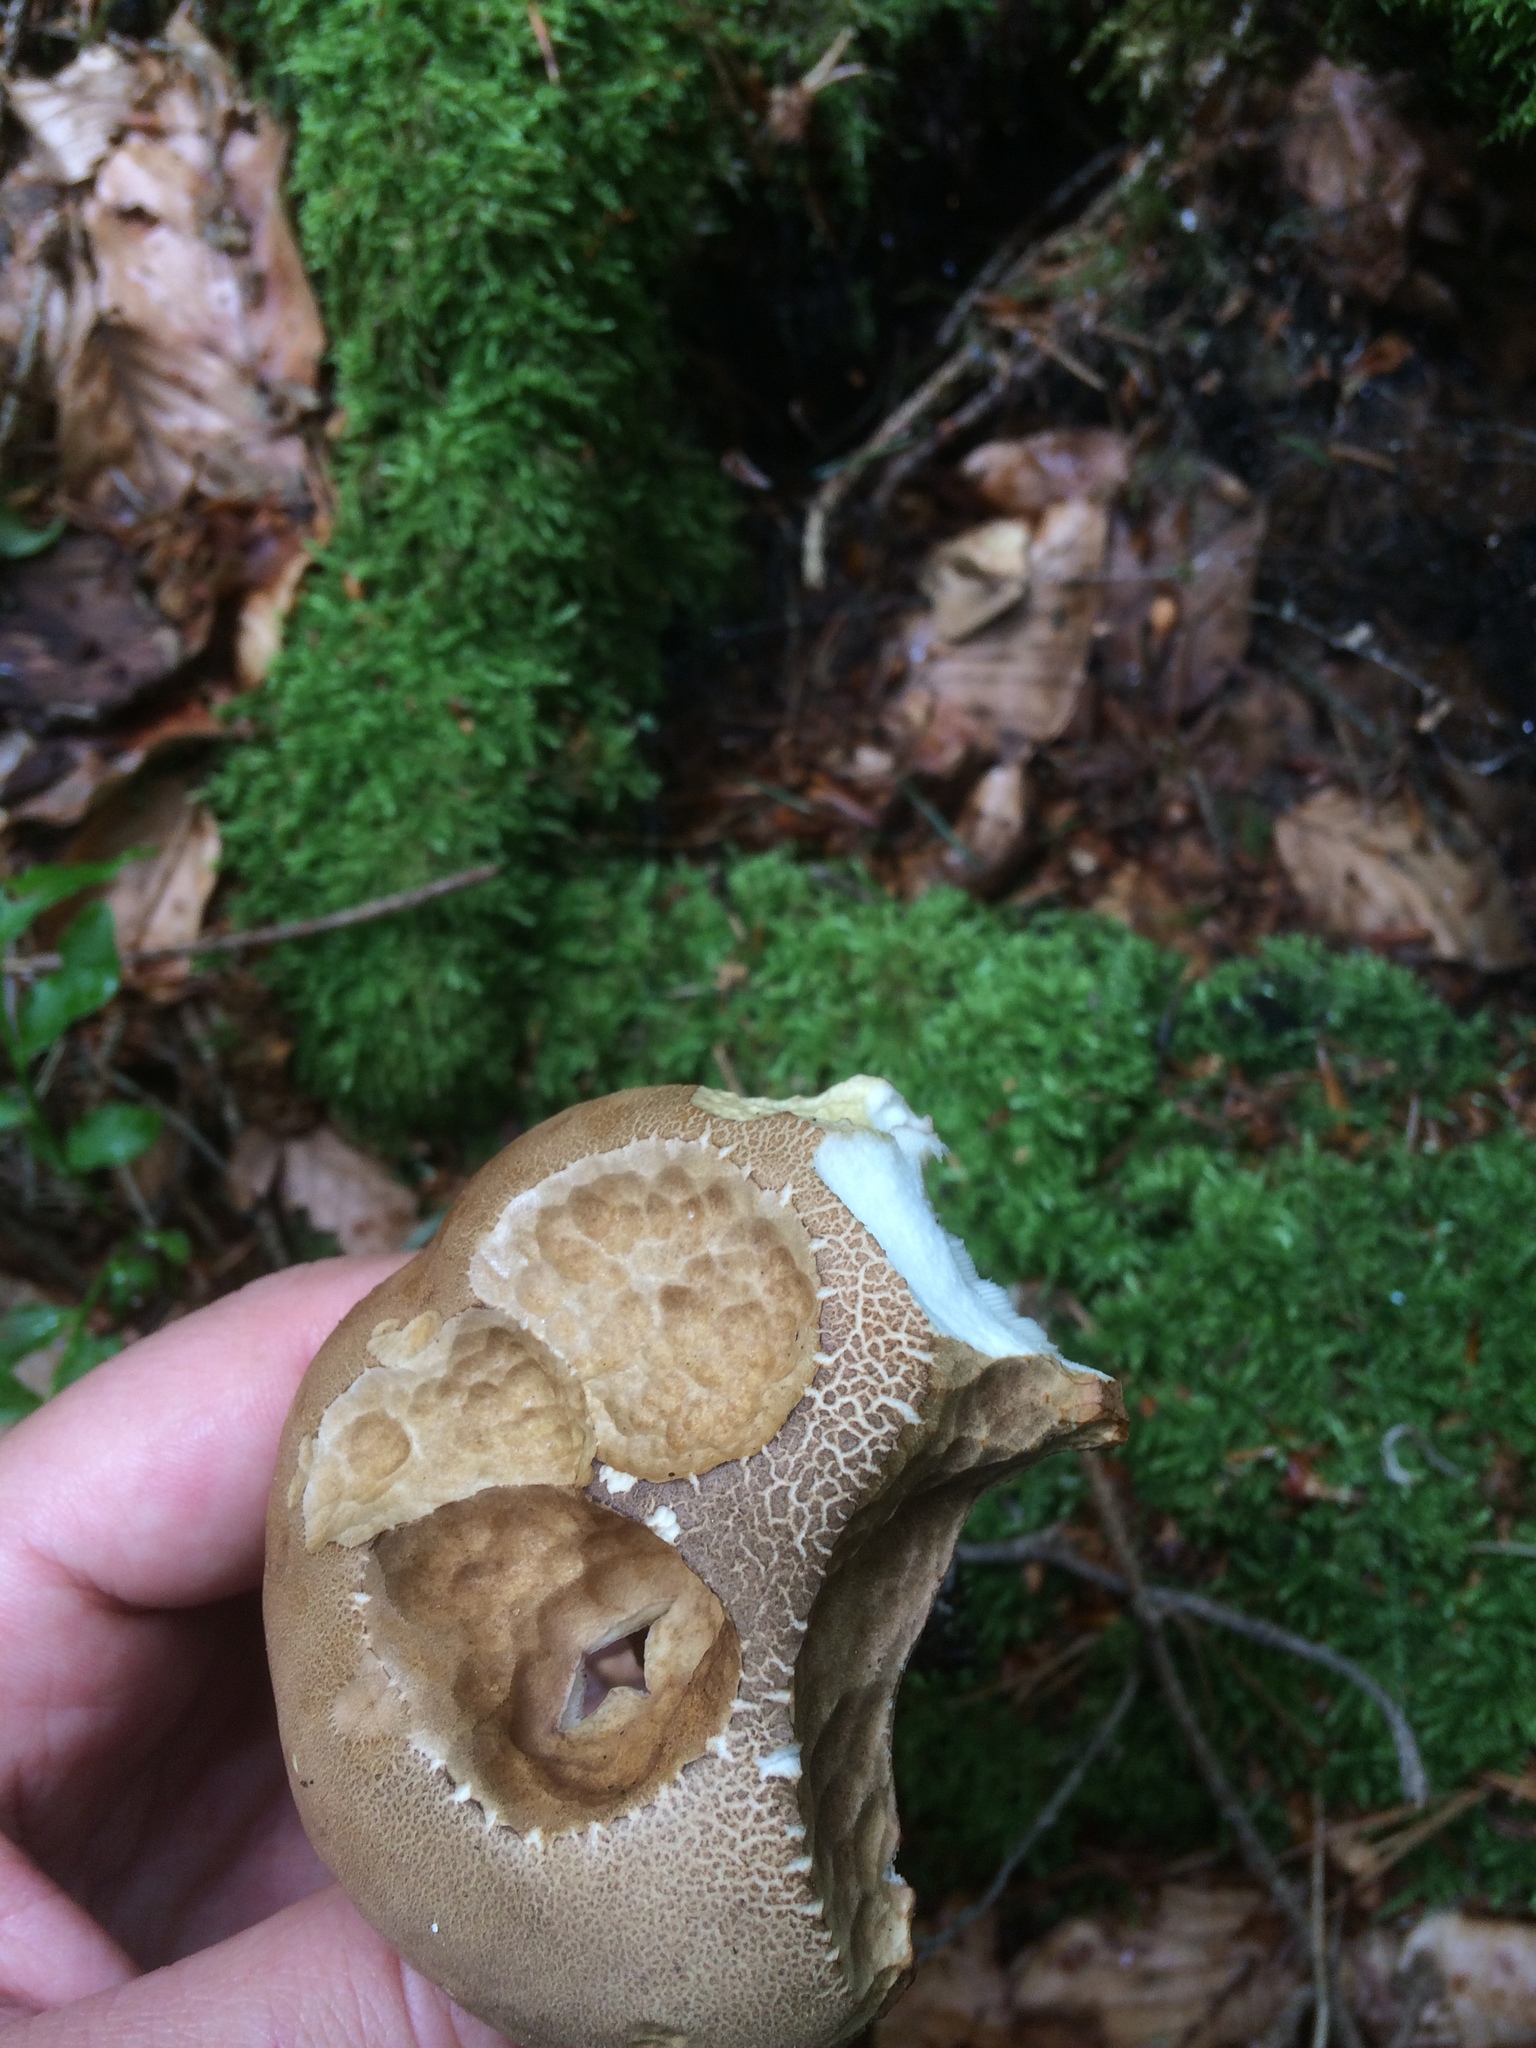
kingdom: Fungi
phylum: Basidiomycota
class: Agaricomycetes
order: Boletales
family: Boletaceae
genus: Tylopilus
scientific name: Tylopilus felleus
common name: Bitter bolete
